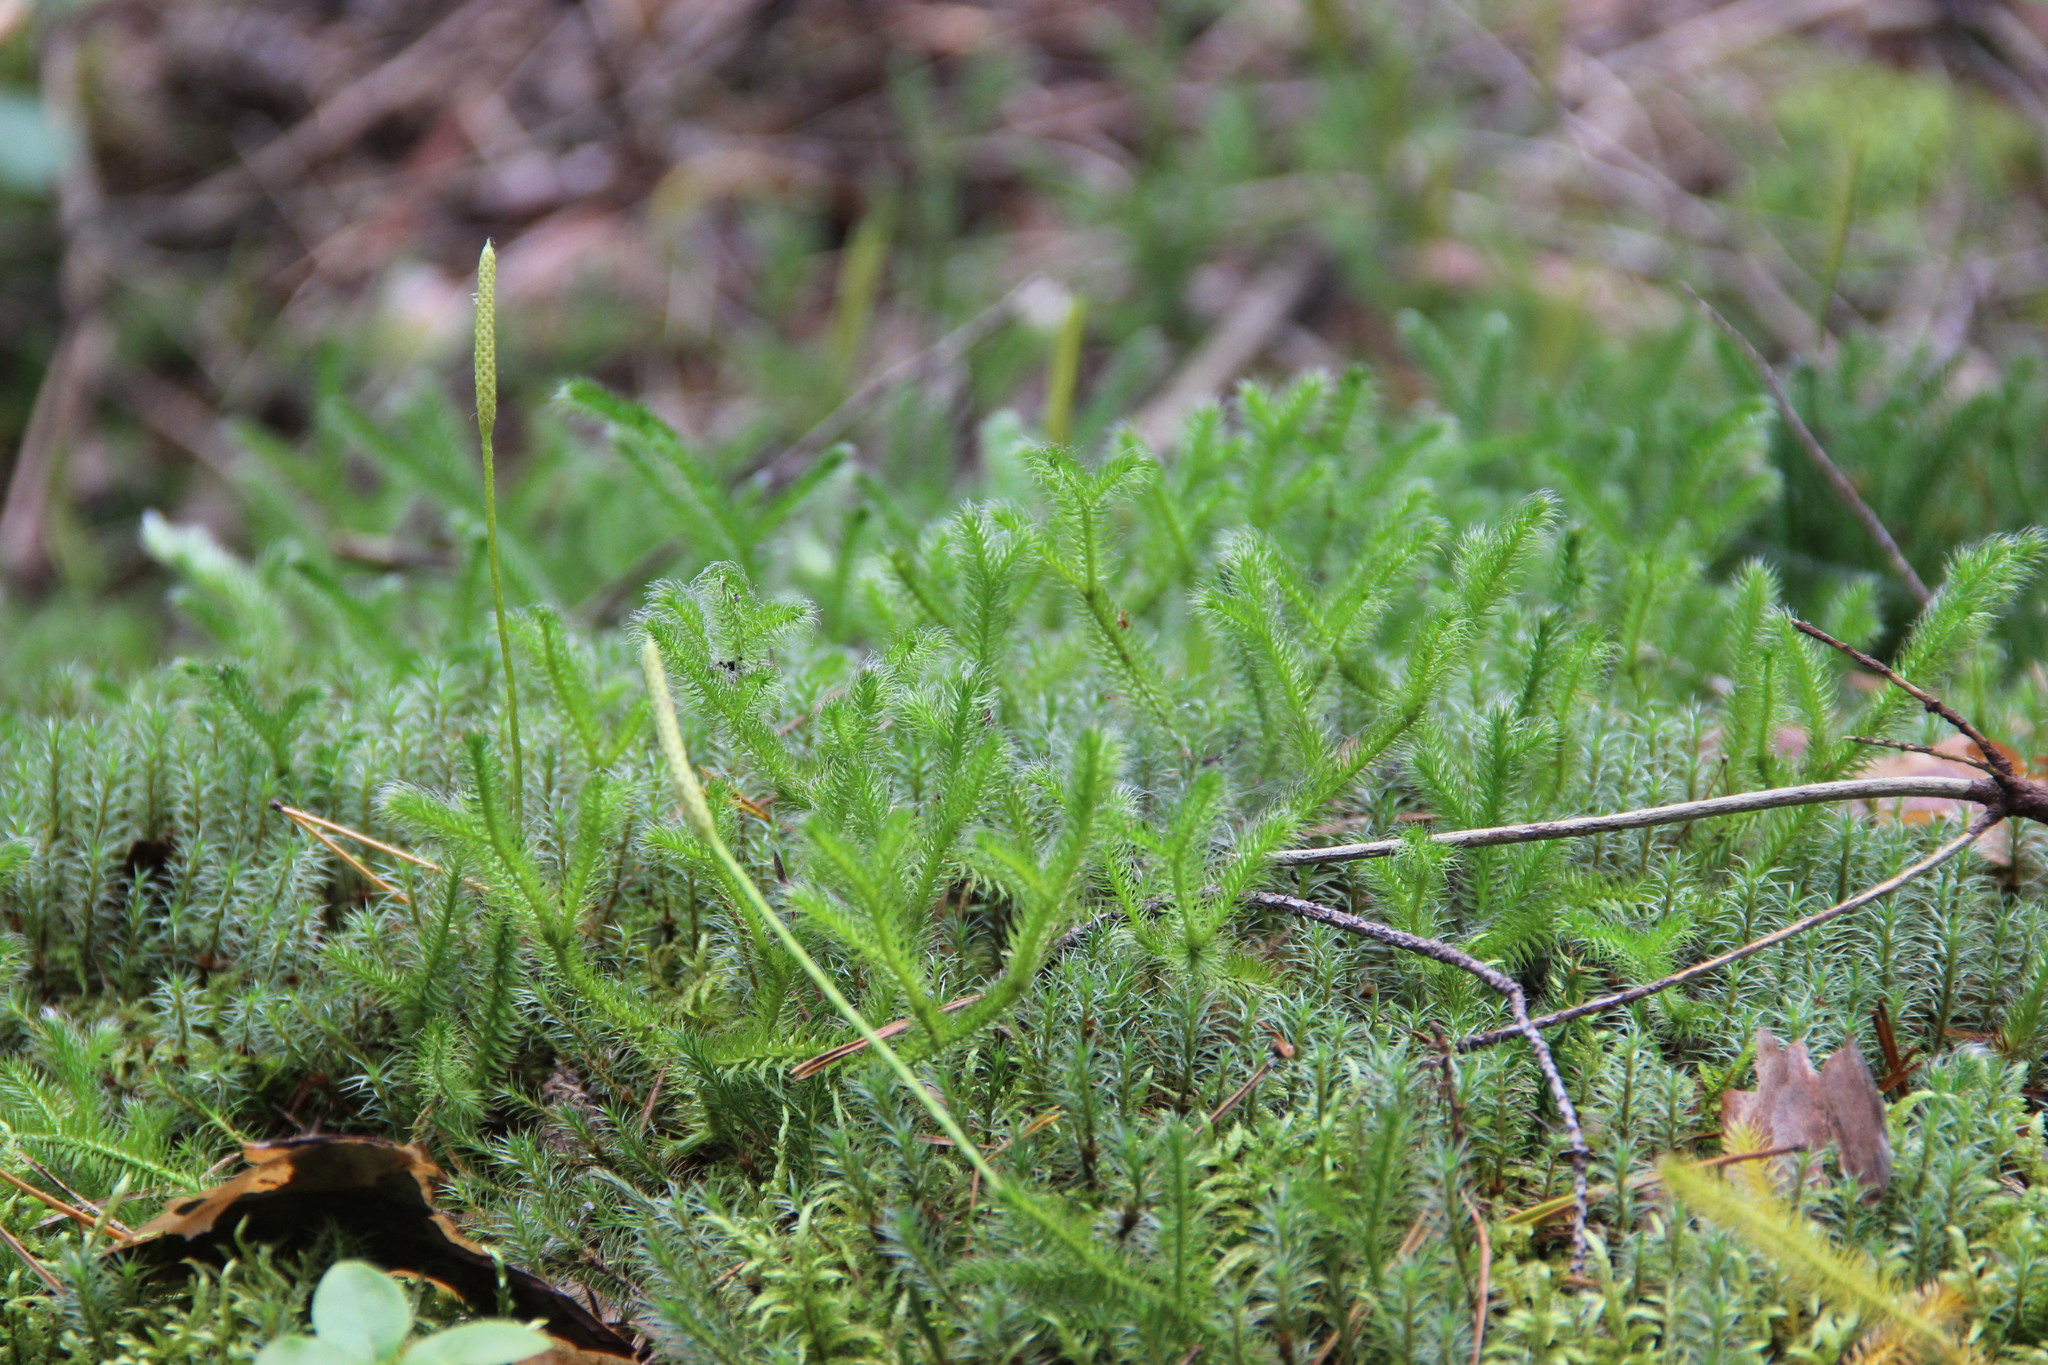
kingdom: Plantae
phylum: Tracheophyta
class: Lycopodiopsida
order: Lycopodiales
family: Lycopodiaceae
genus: Lycopodium
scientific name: Lycopodium clavatum
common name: Stag's-horn clubmoss
